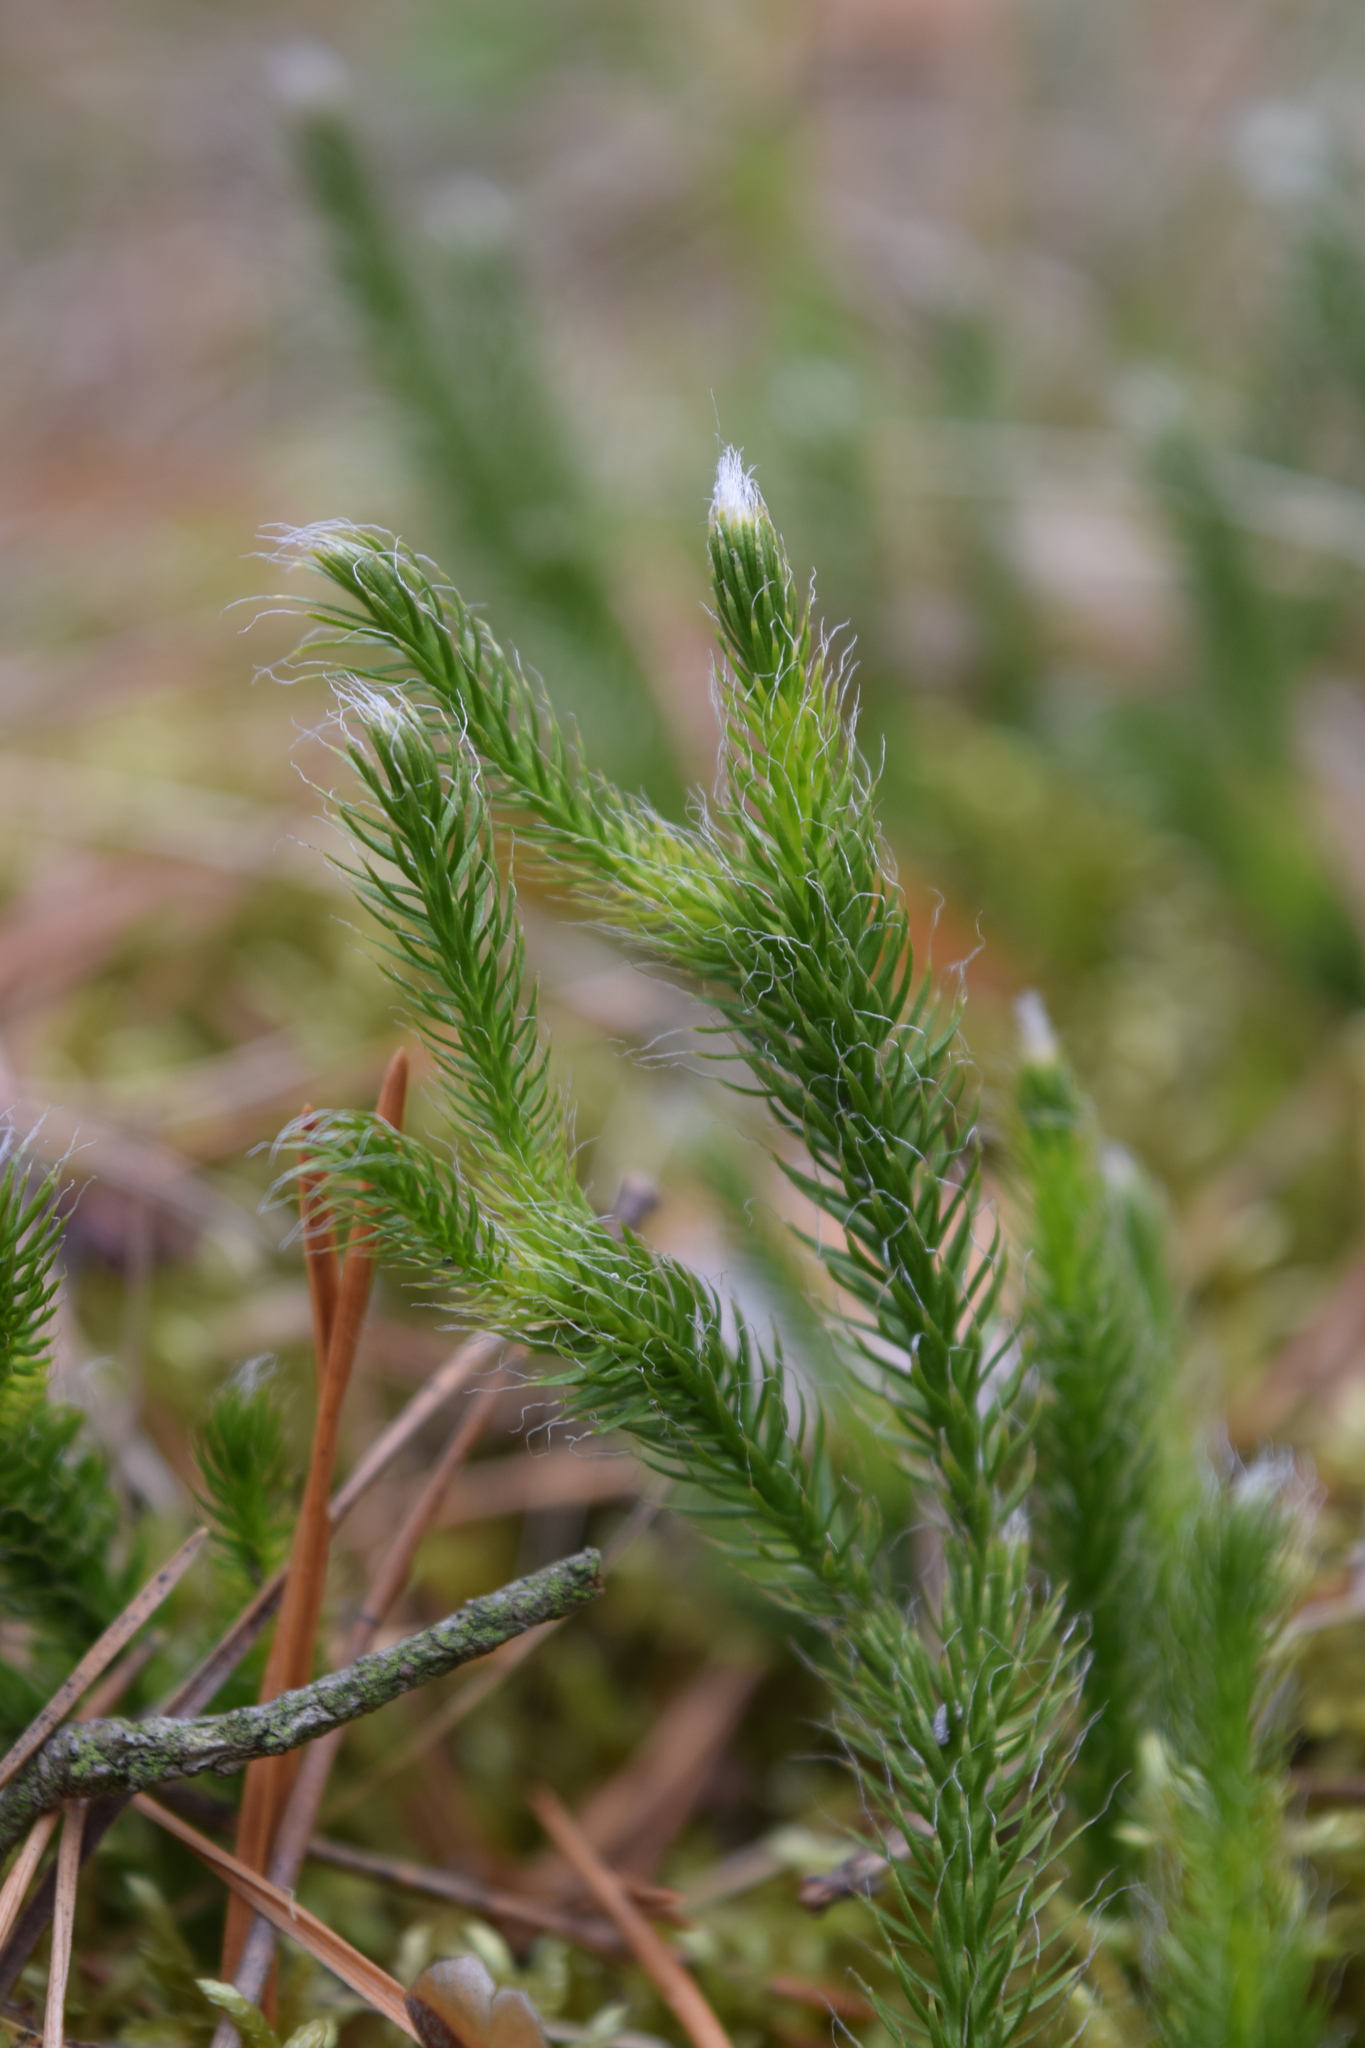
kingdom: Plantae
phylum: Tracheophyta
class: Lycopodiopsida
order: Lycopodiales
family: Lycopodiaceae
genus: Lycopodium
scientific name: Lycopodium clavatum
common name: Stag's-horn clubmoss
